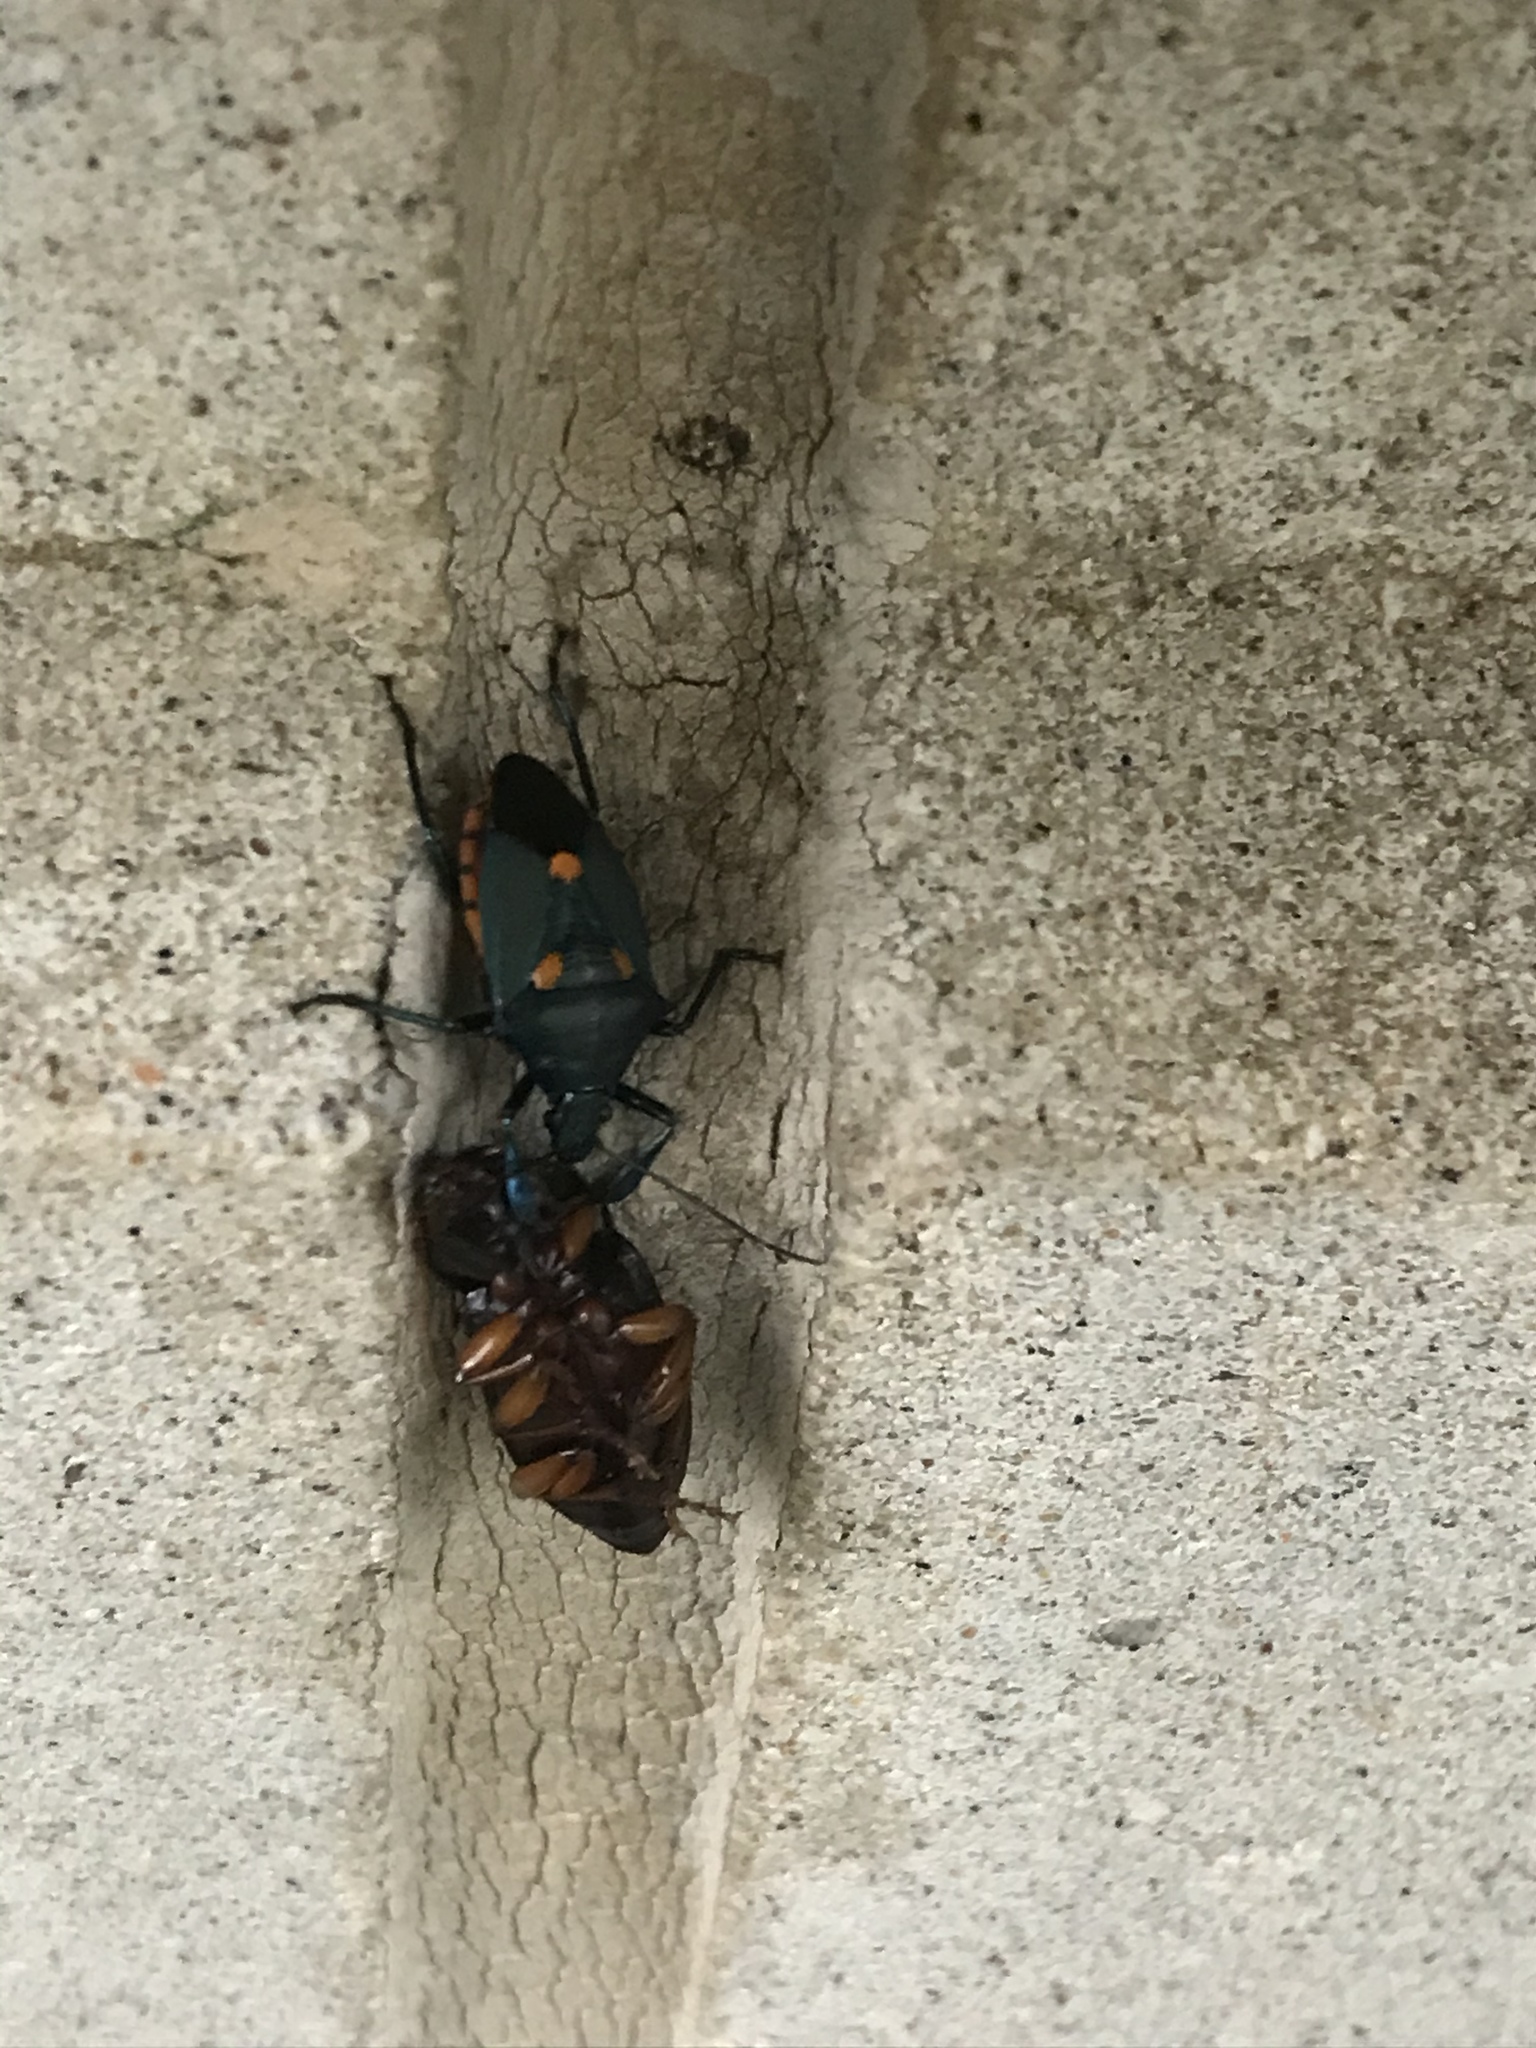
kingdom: Animalia
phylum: Arthropoda
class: Insecta
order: Hemiptera
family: Pentatomidae
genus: Euthyrhynchus
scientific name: Euthyrhynchus floridanus
